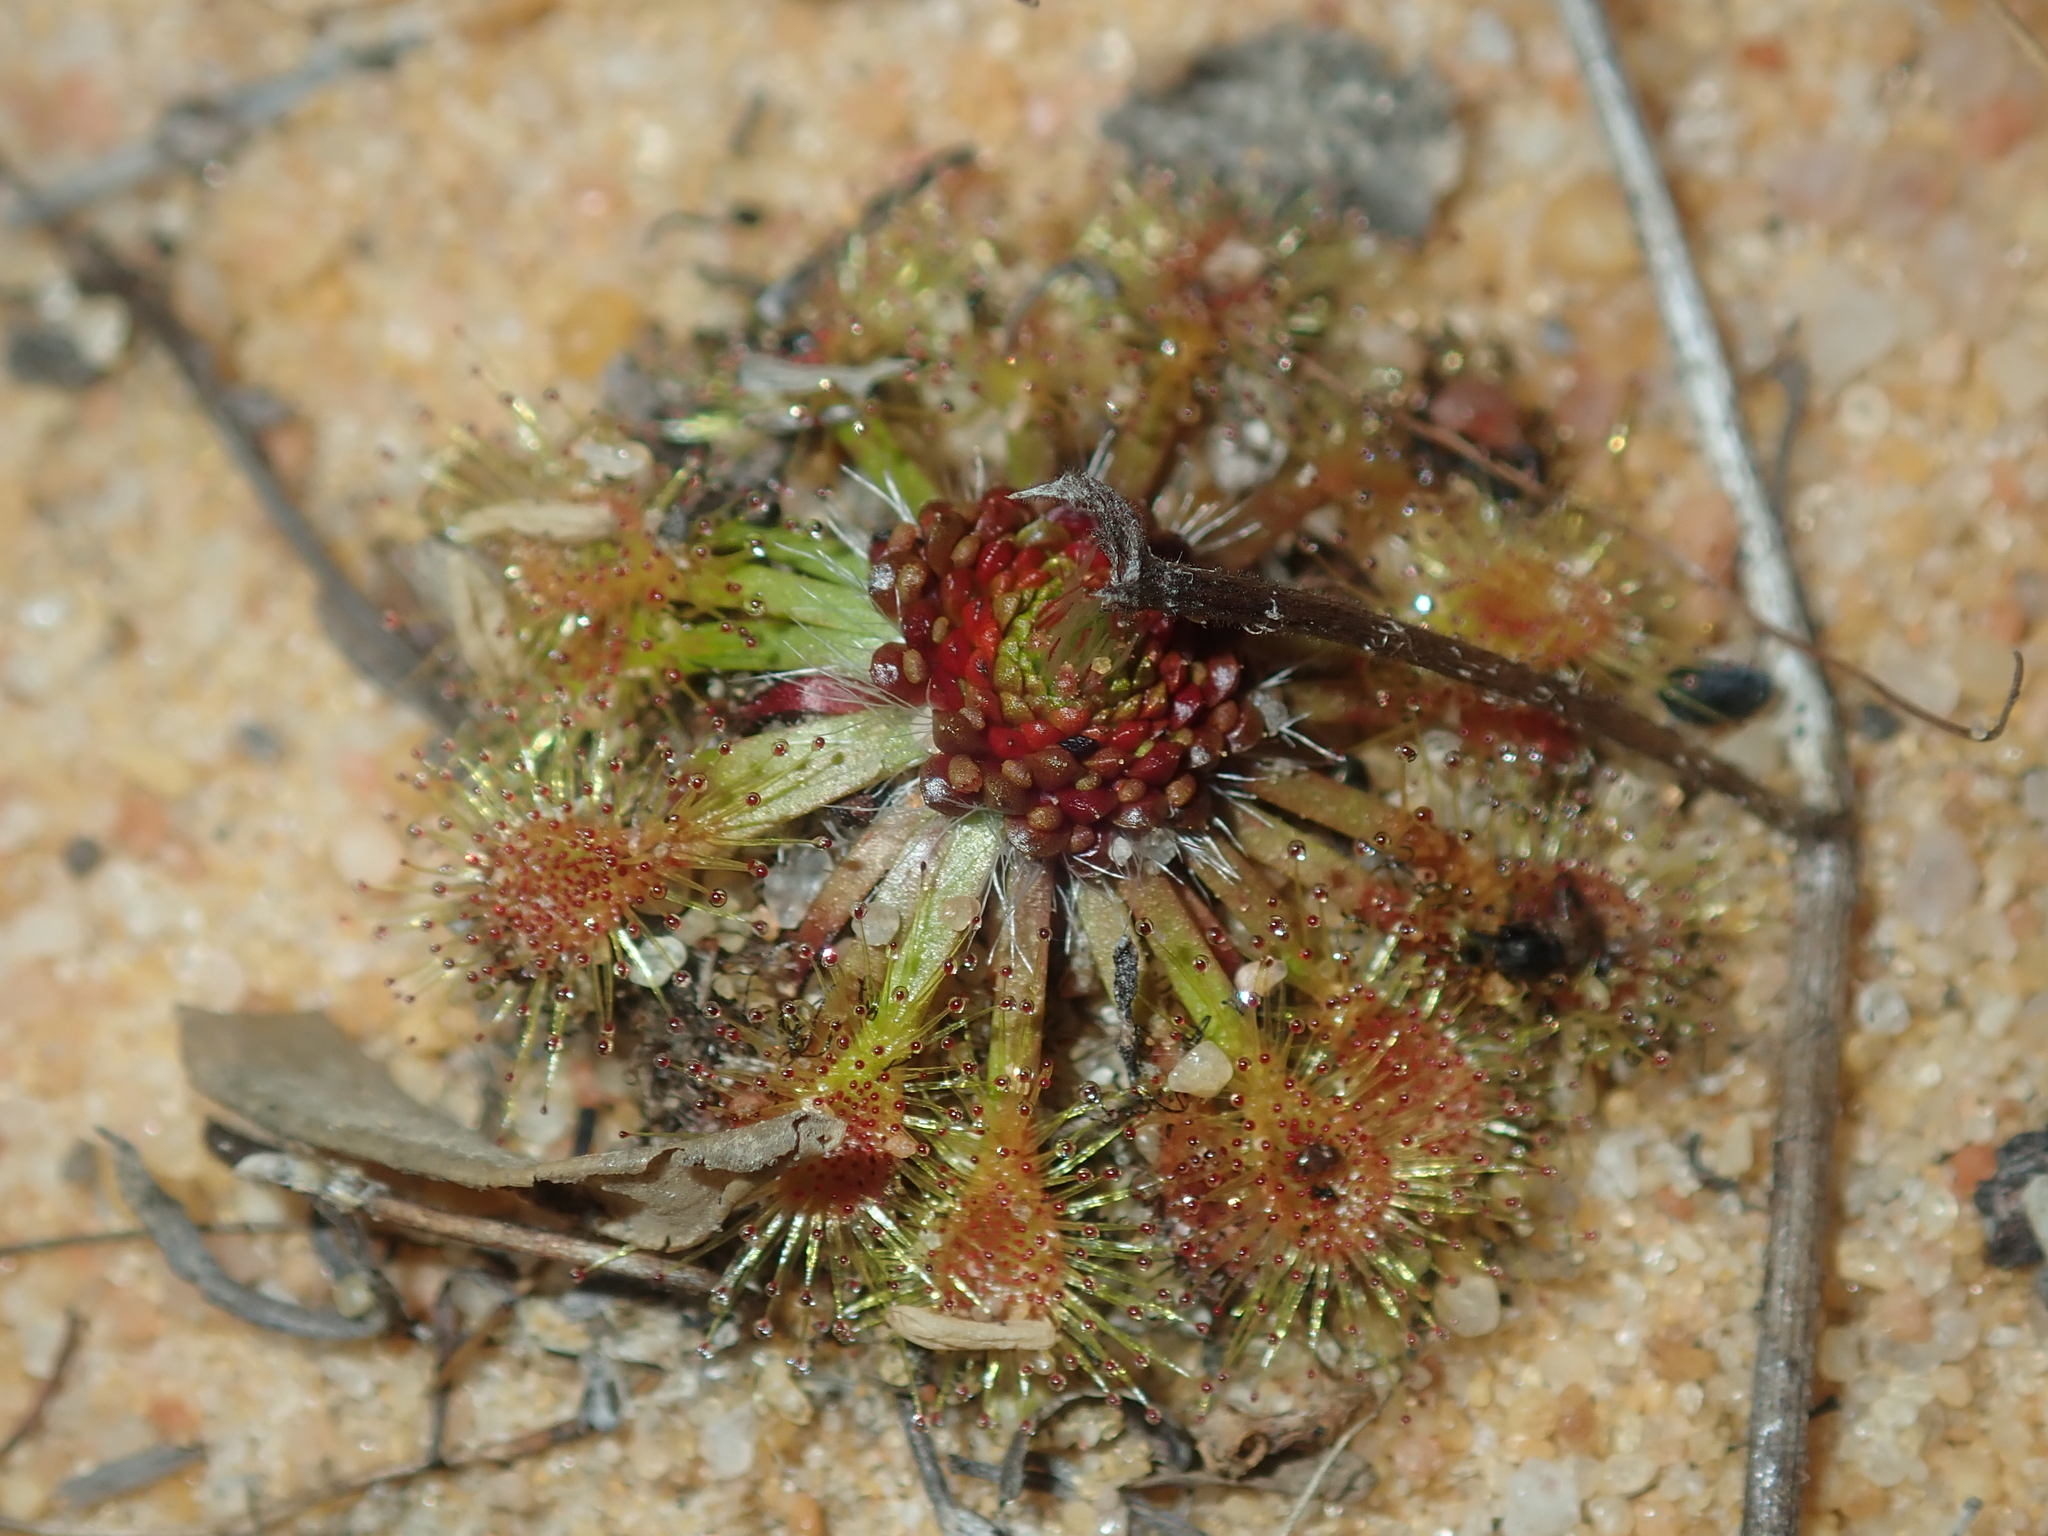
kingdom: Plantae
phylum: Tracheophyta
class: Magnoliopsida
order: Caryophyllales
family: Droseraceae
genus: Drosera
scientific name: Drosera nitidula
